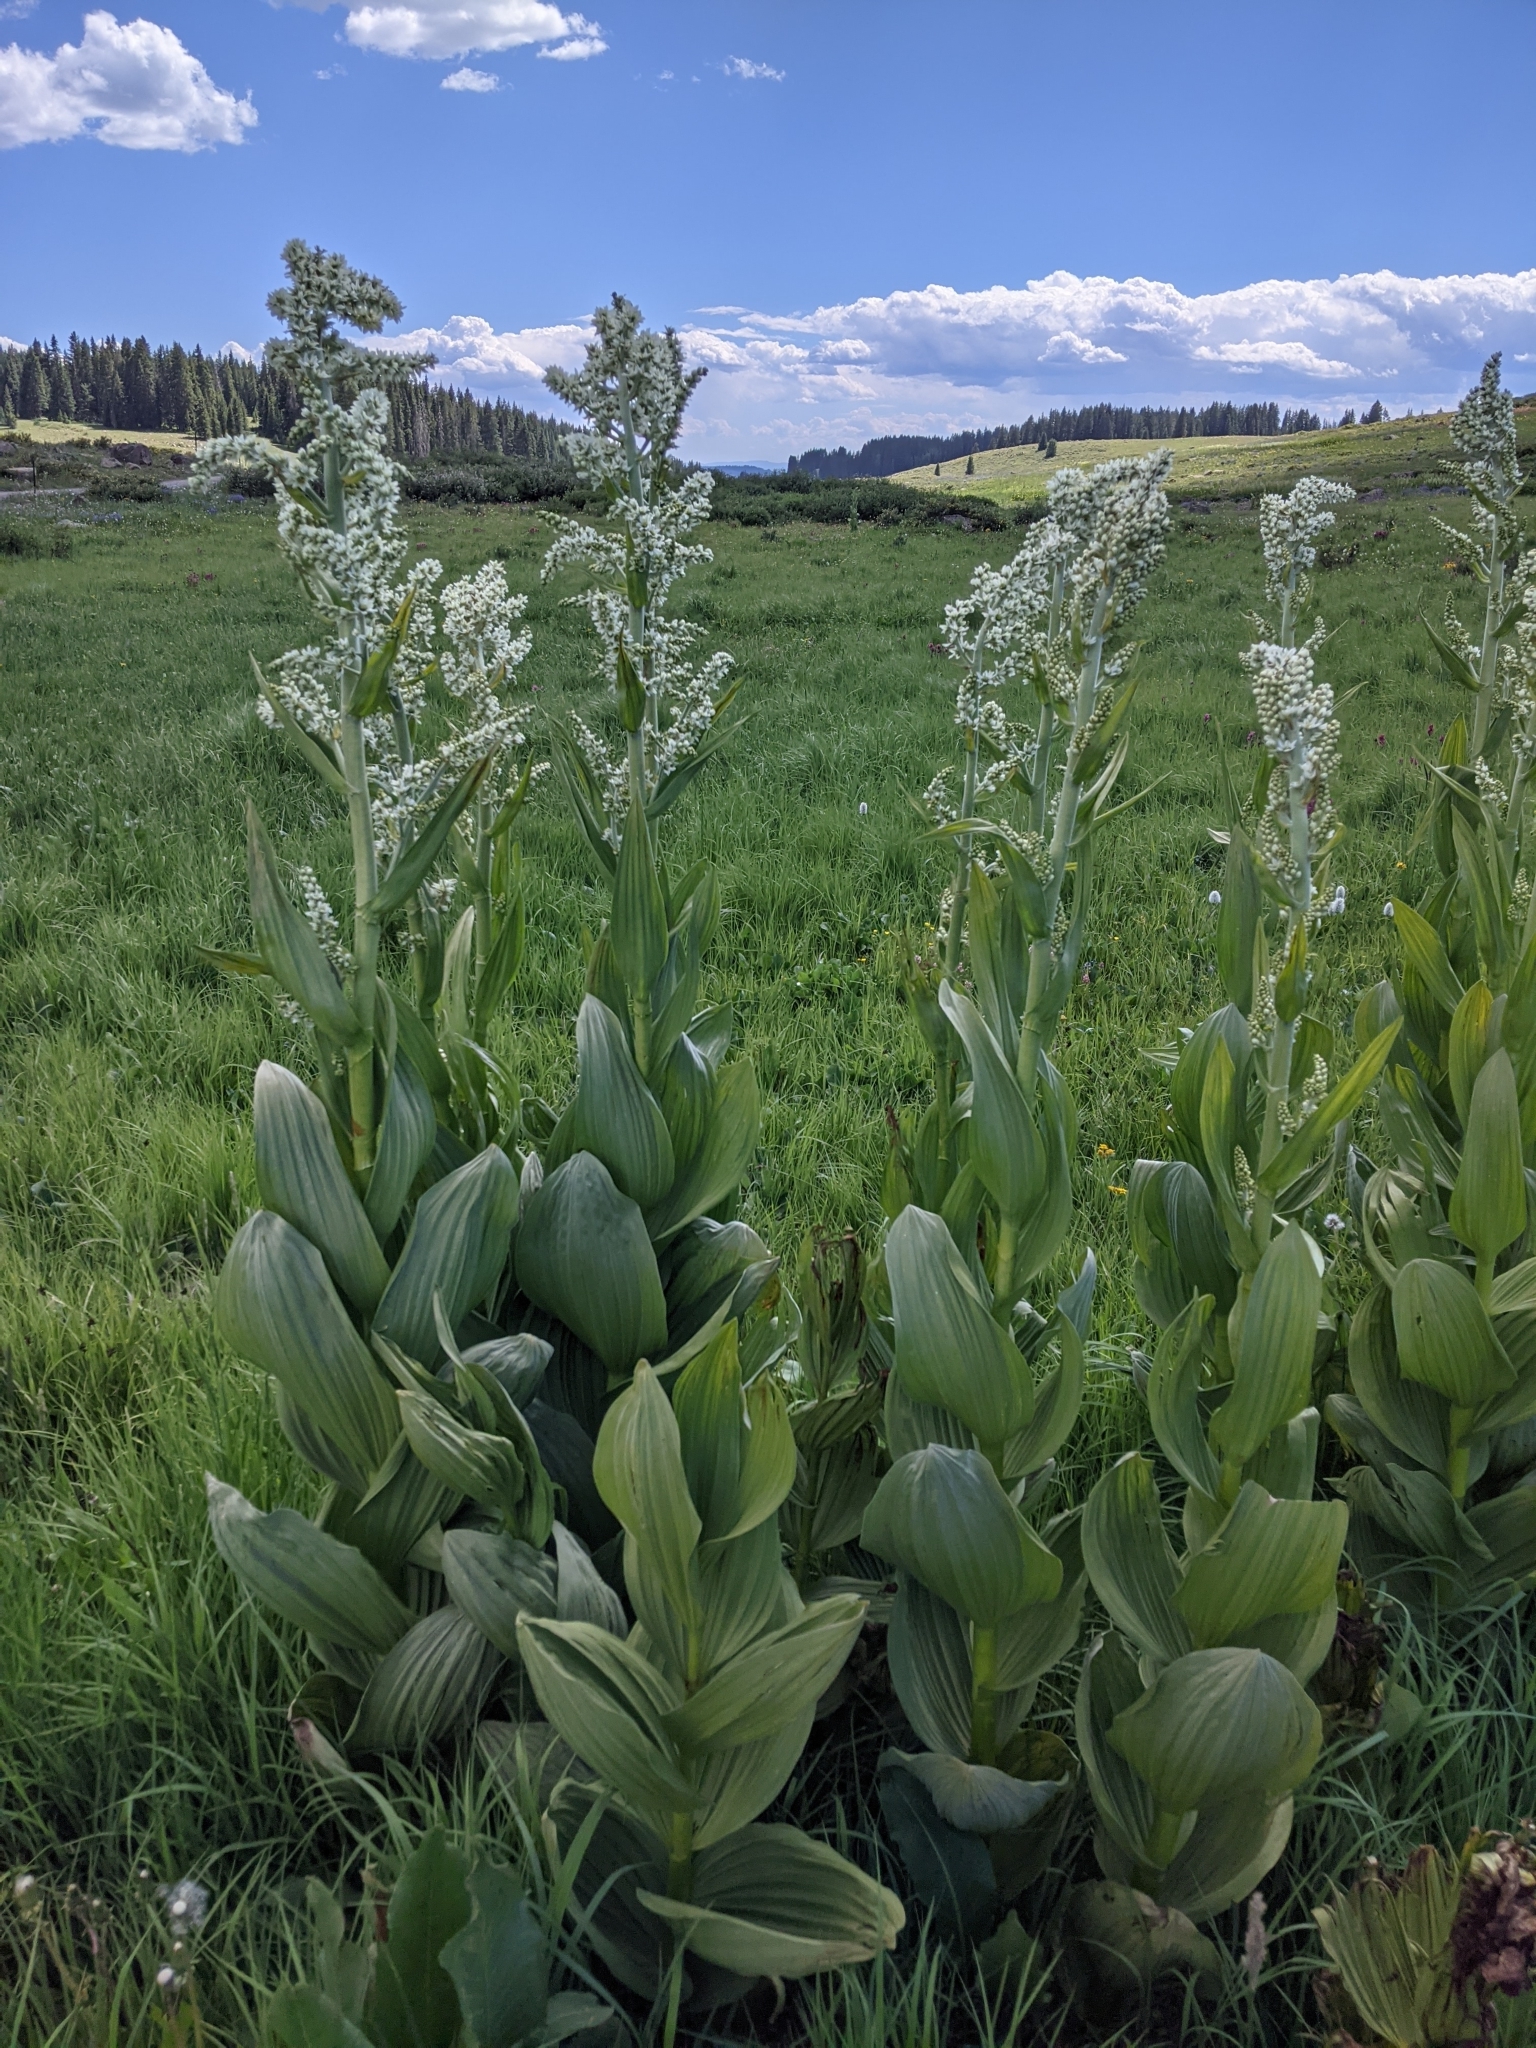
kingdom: Plantae
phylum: Tracheophyta
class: Liliopsida
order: Liliales
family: Melanthiaceae
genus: Veratrum
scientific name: Veratrum californicum
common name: California veratrum
